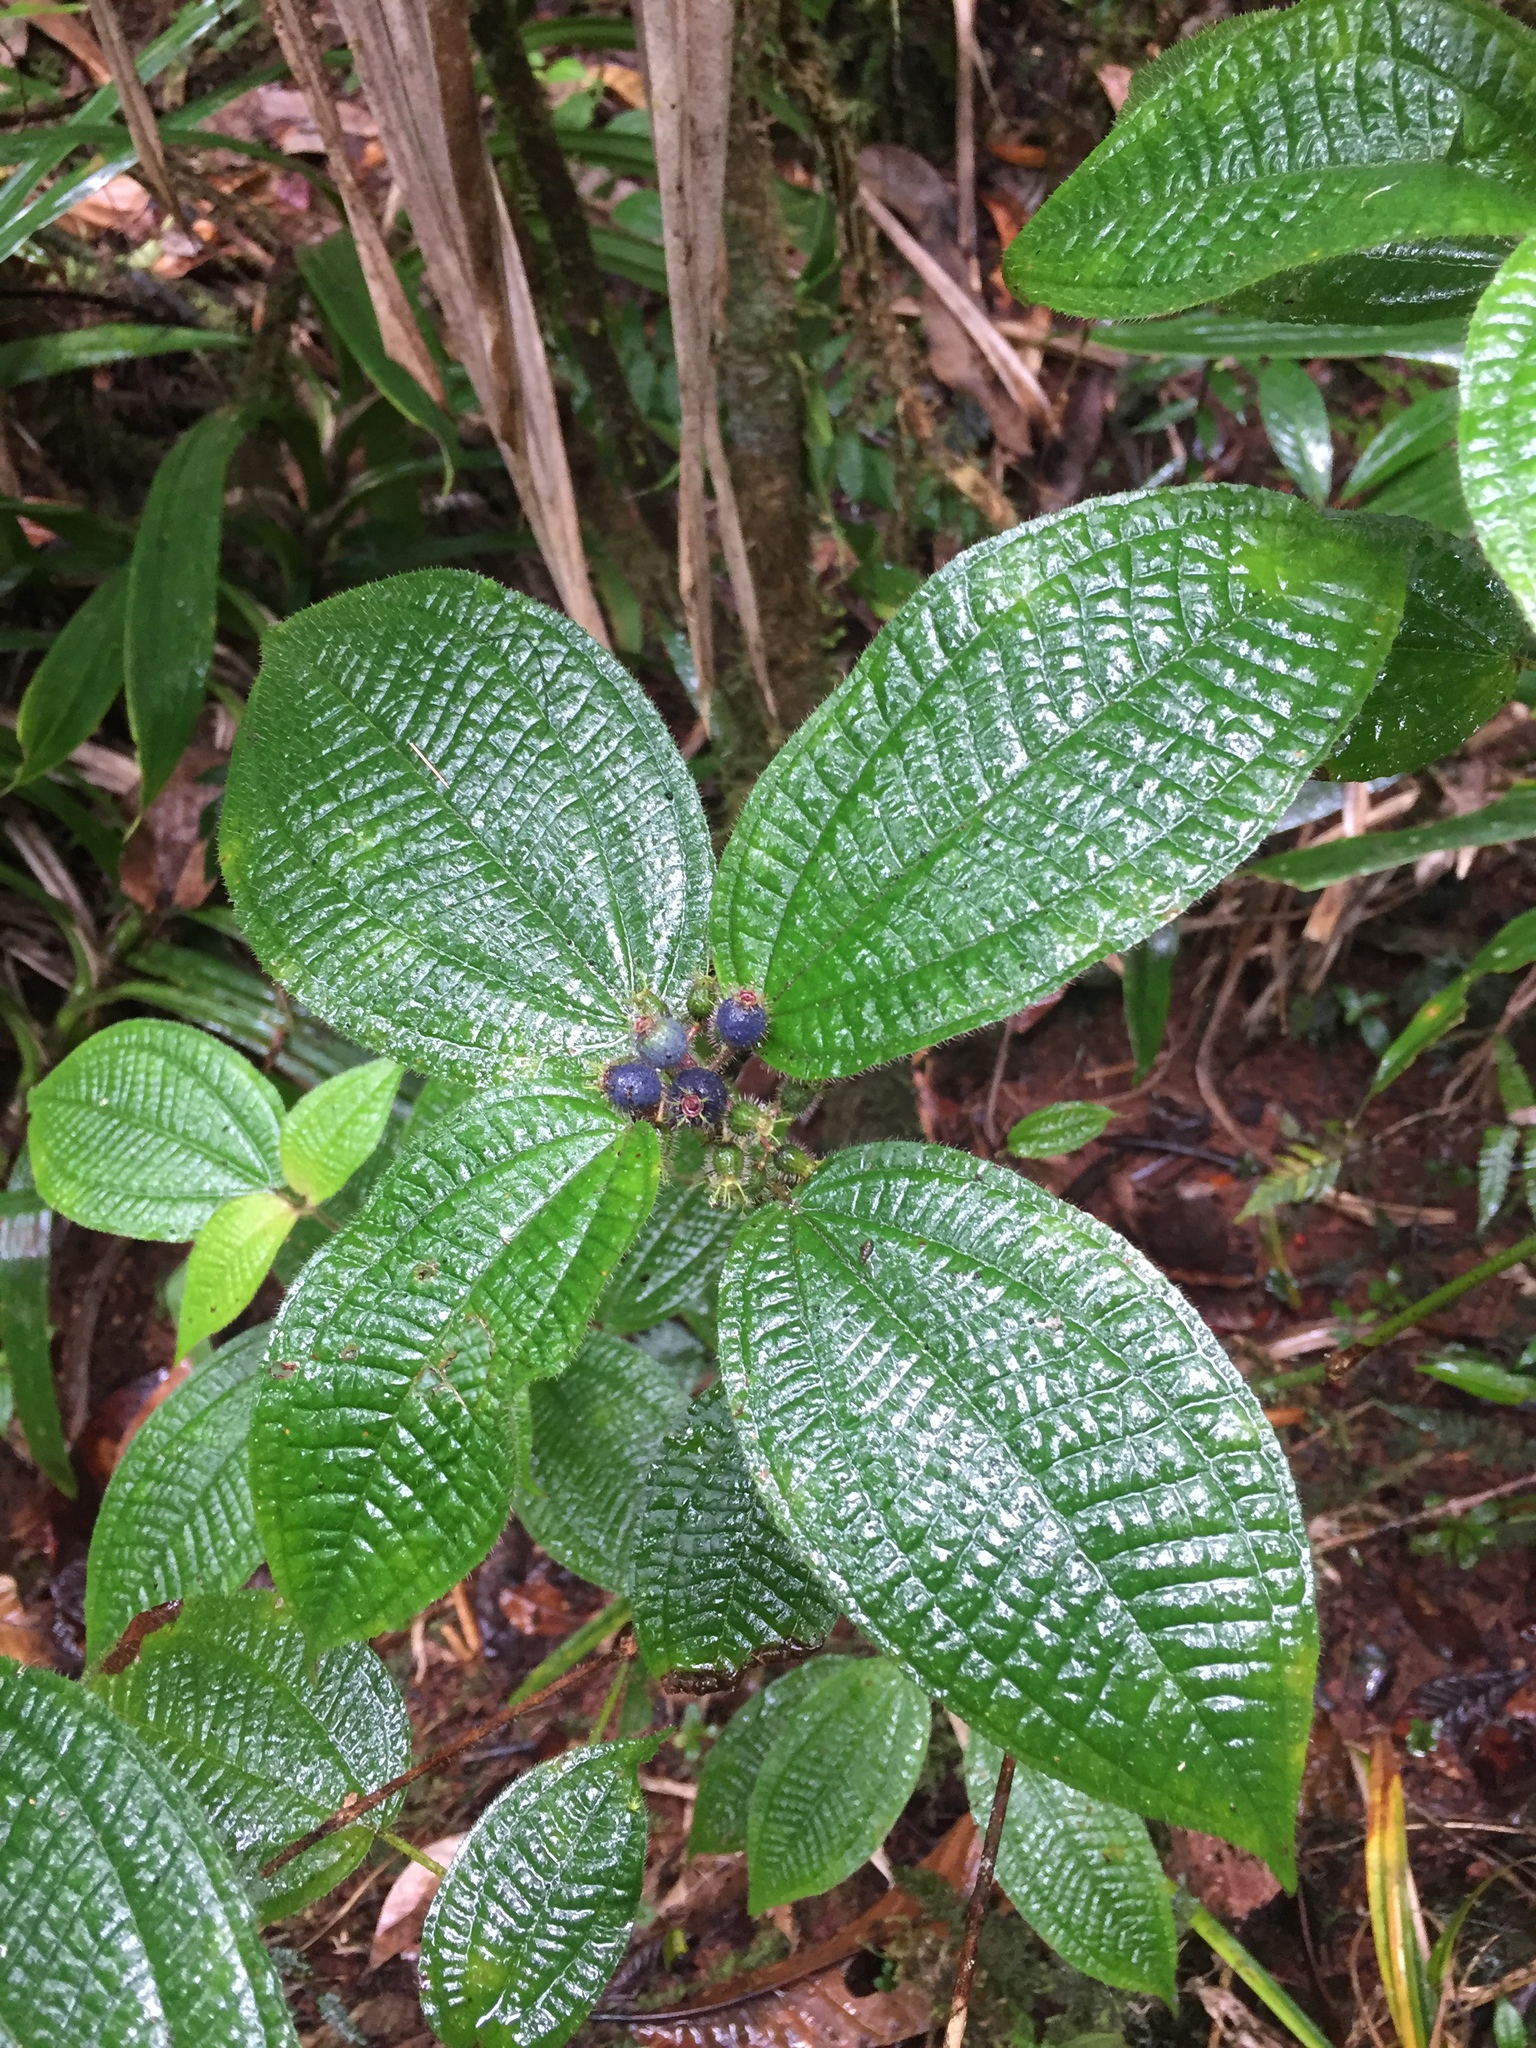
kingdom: Plantae
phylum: Tracheophyta
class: Magnoliopsida
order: Myrtales
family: Melastomataceae
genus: Miconia
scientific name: Miconia crenata
